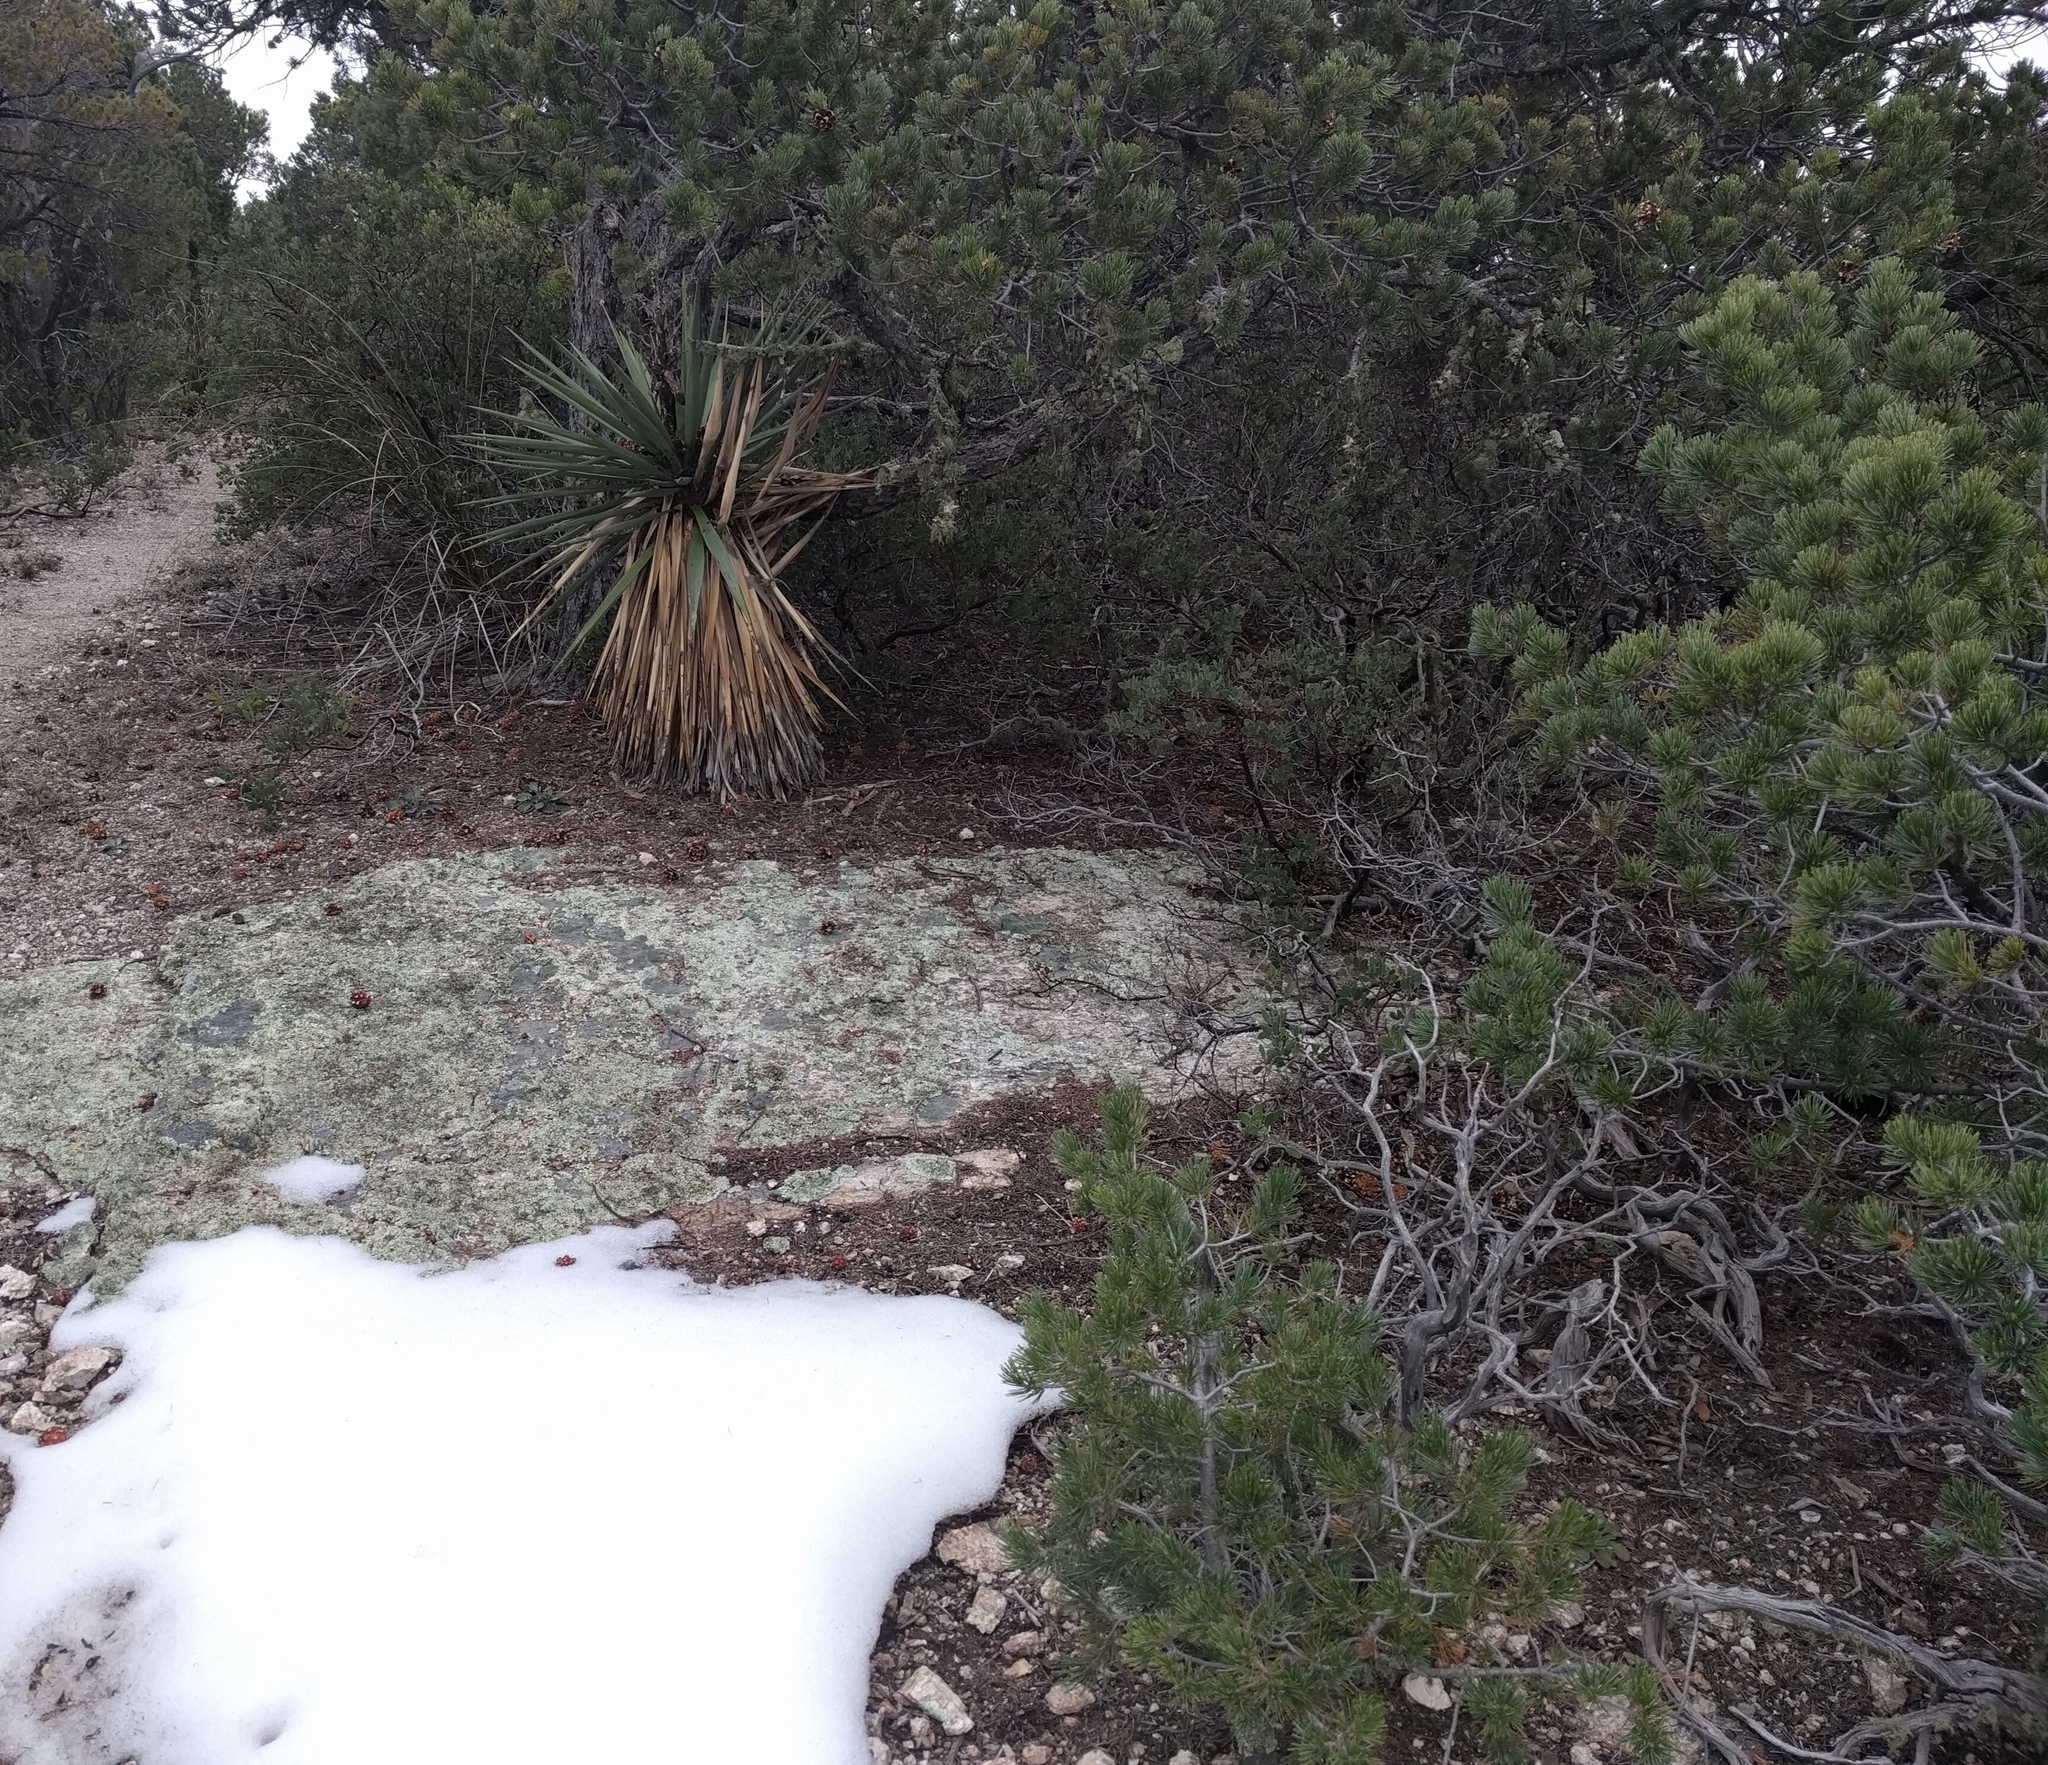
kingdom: Plantae
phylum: Tracheophyta
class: Liliopsida
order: Asparagales
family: Asparagaceae
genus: Yucca
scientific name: Yucca madrensis
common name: Hoary yucca
